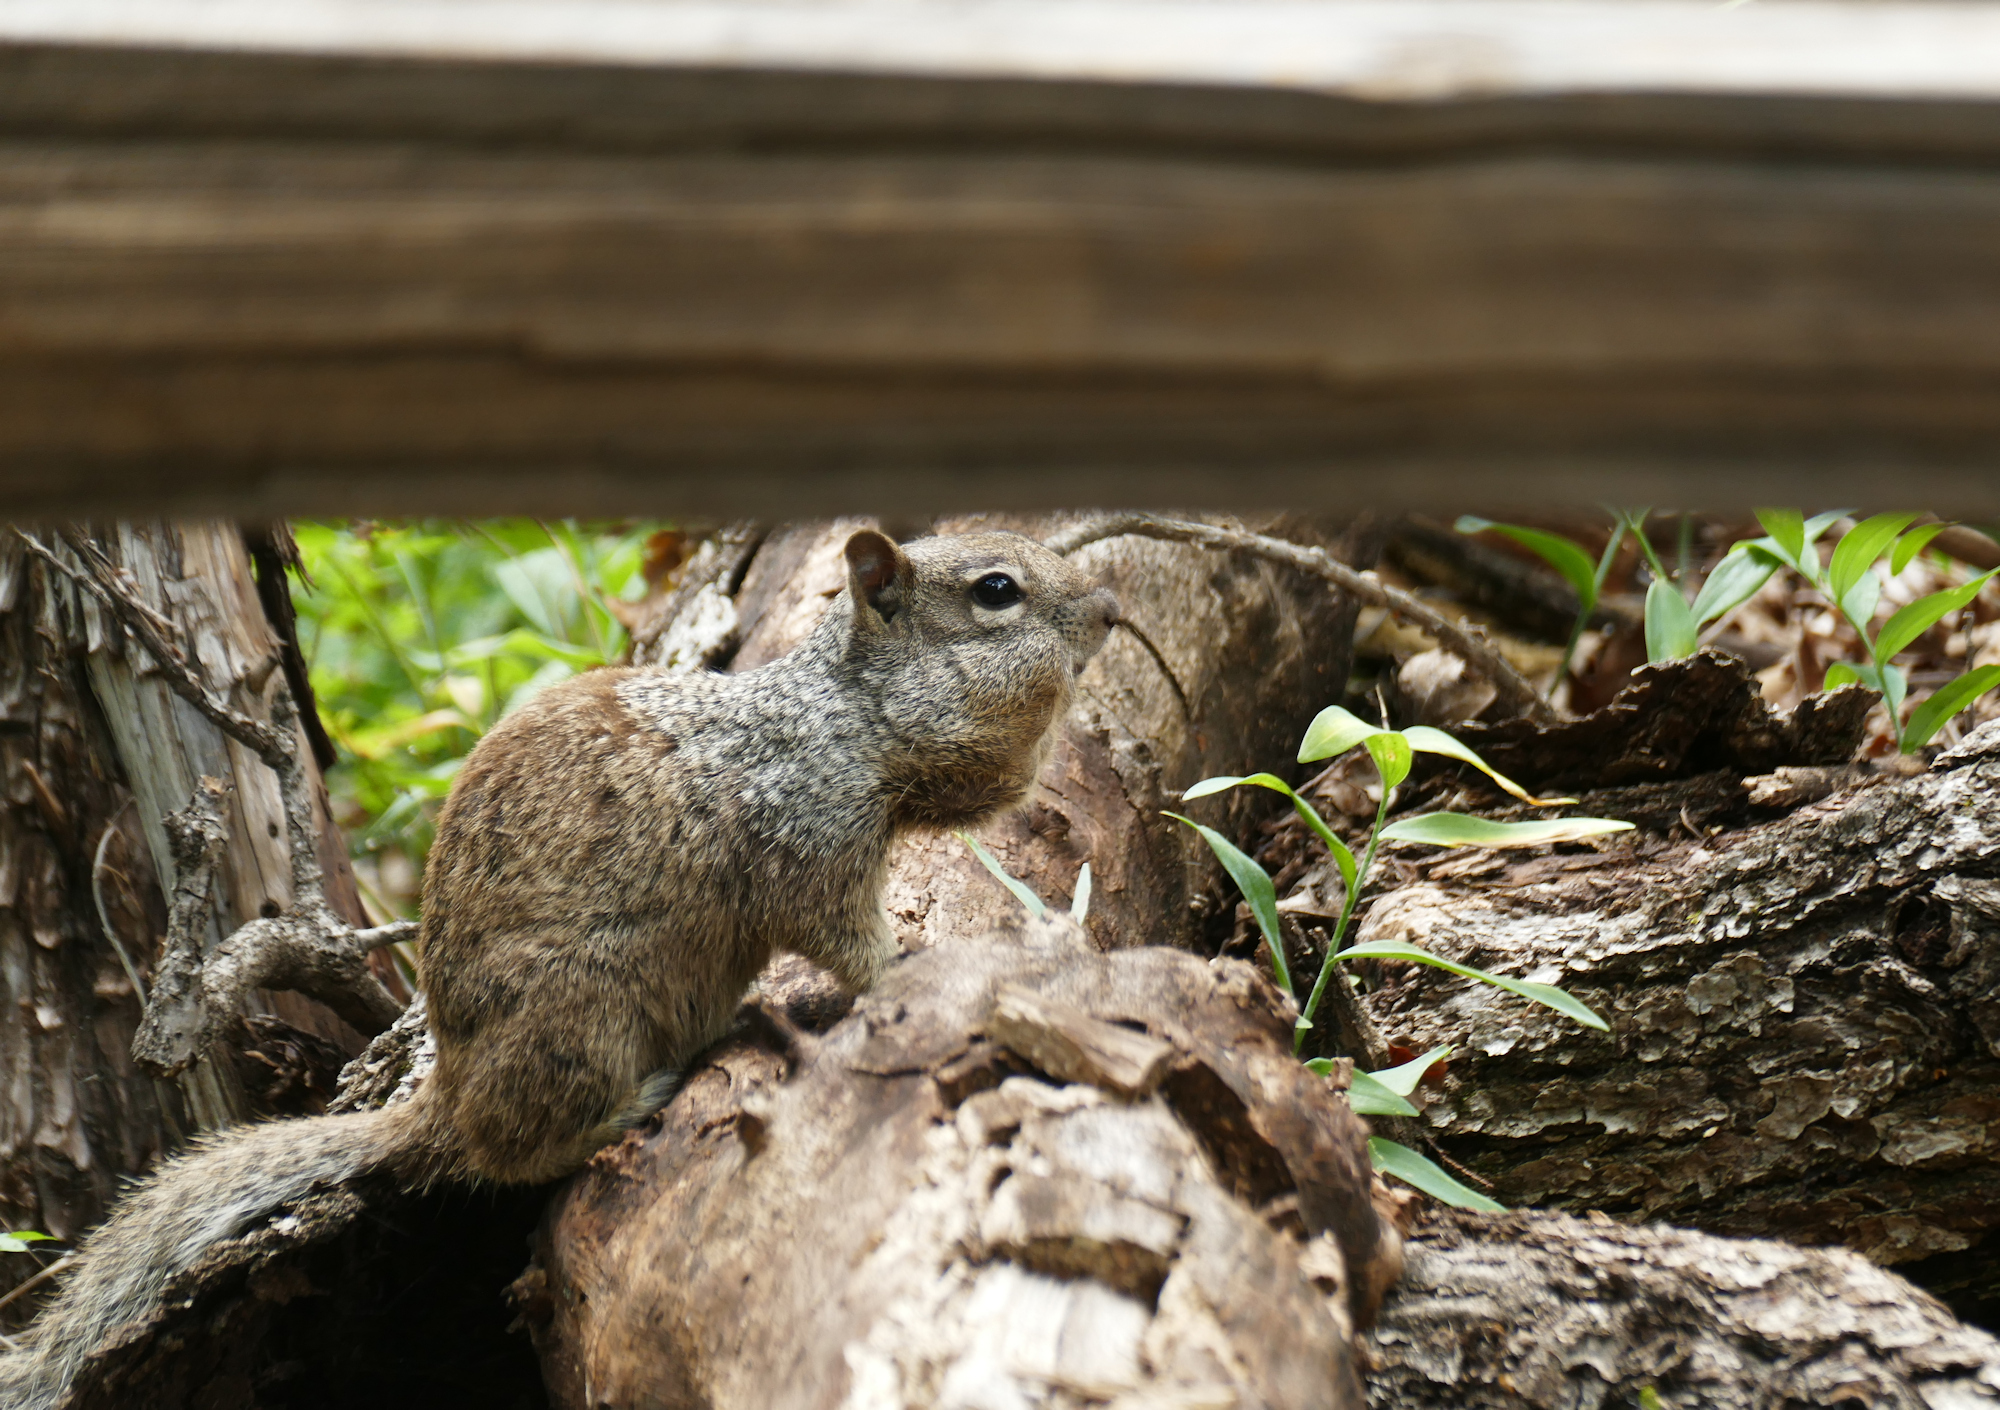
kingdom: Animalia
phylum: Chordata
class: Mammalia
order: Rodentia
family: Sciuridae
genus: Otospermophilus
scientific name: Otospermophilus variegatus
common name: Rock squirrel
